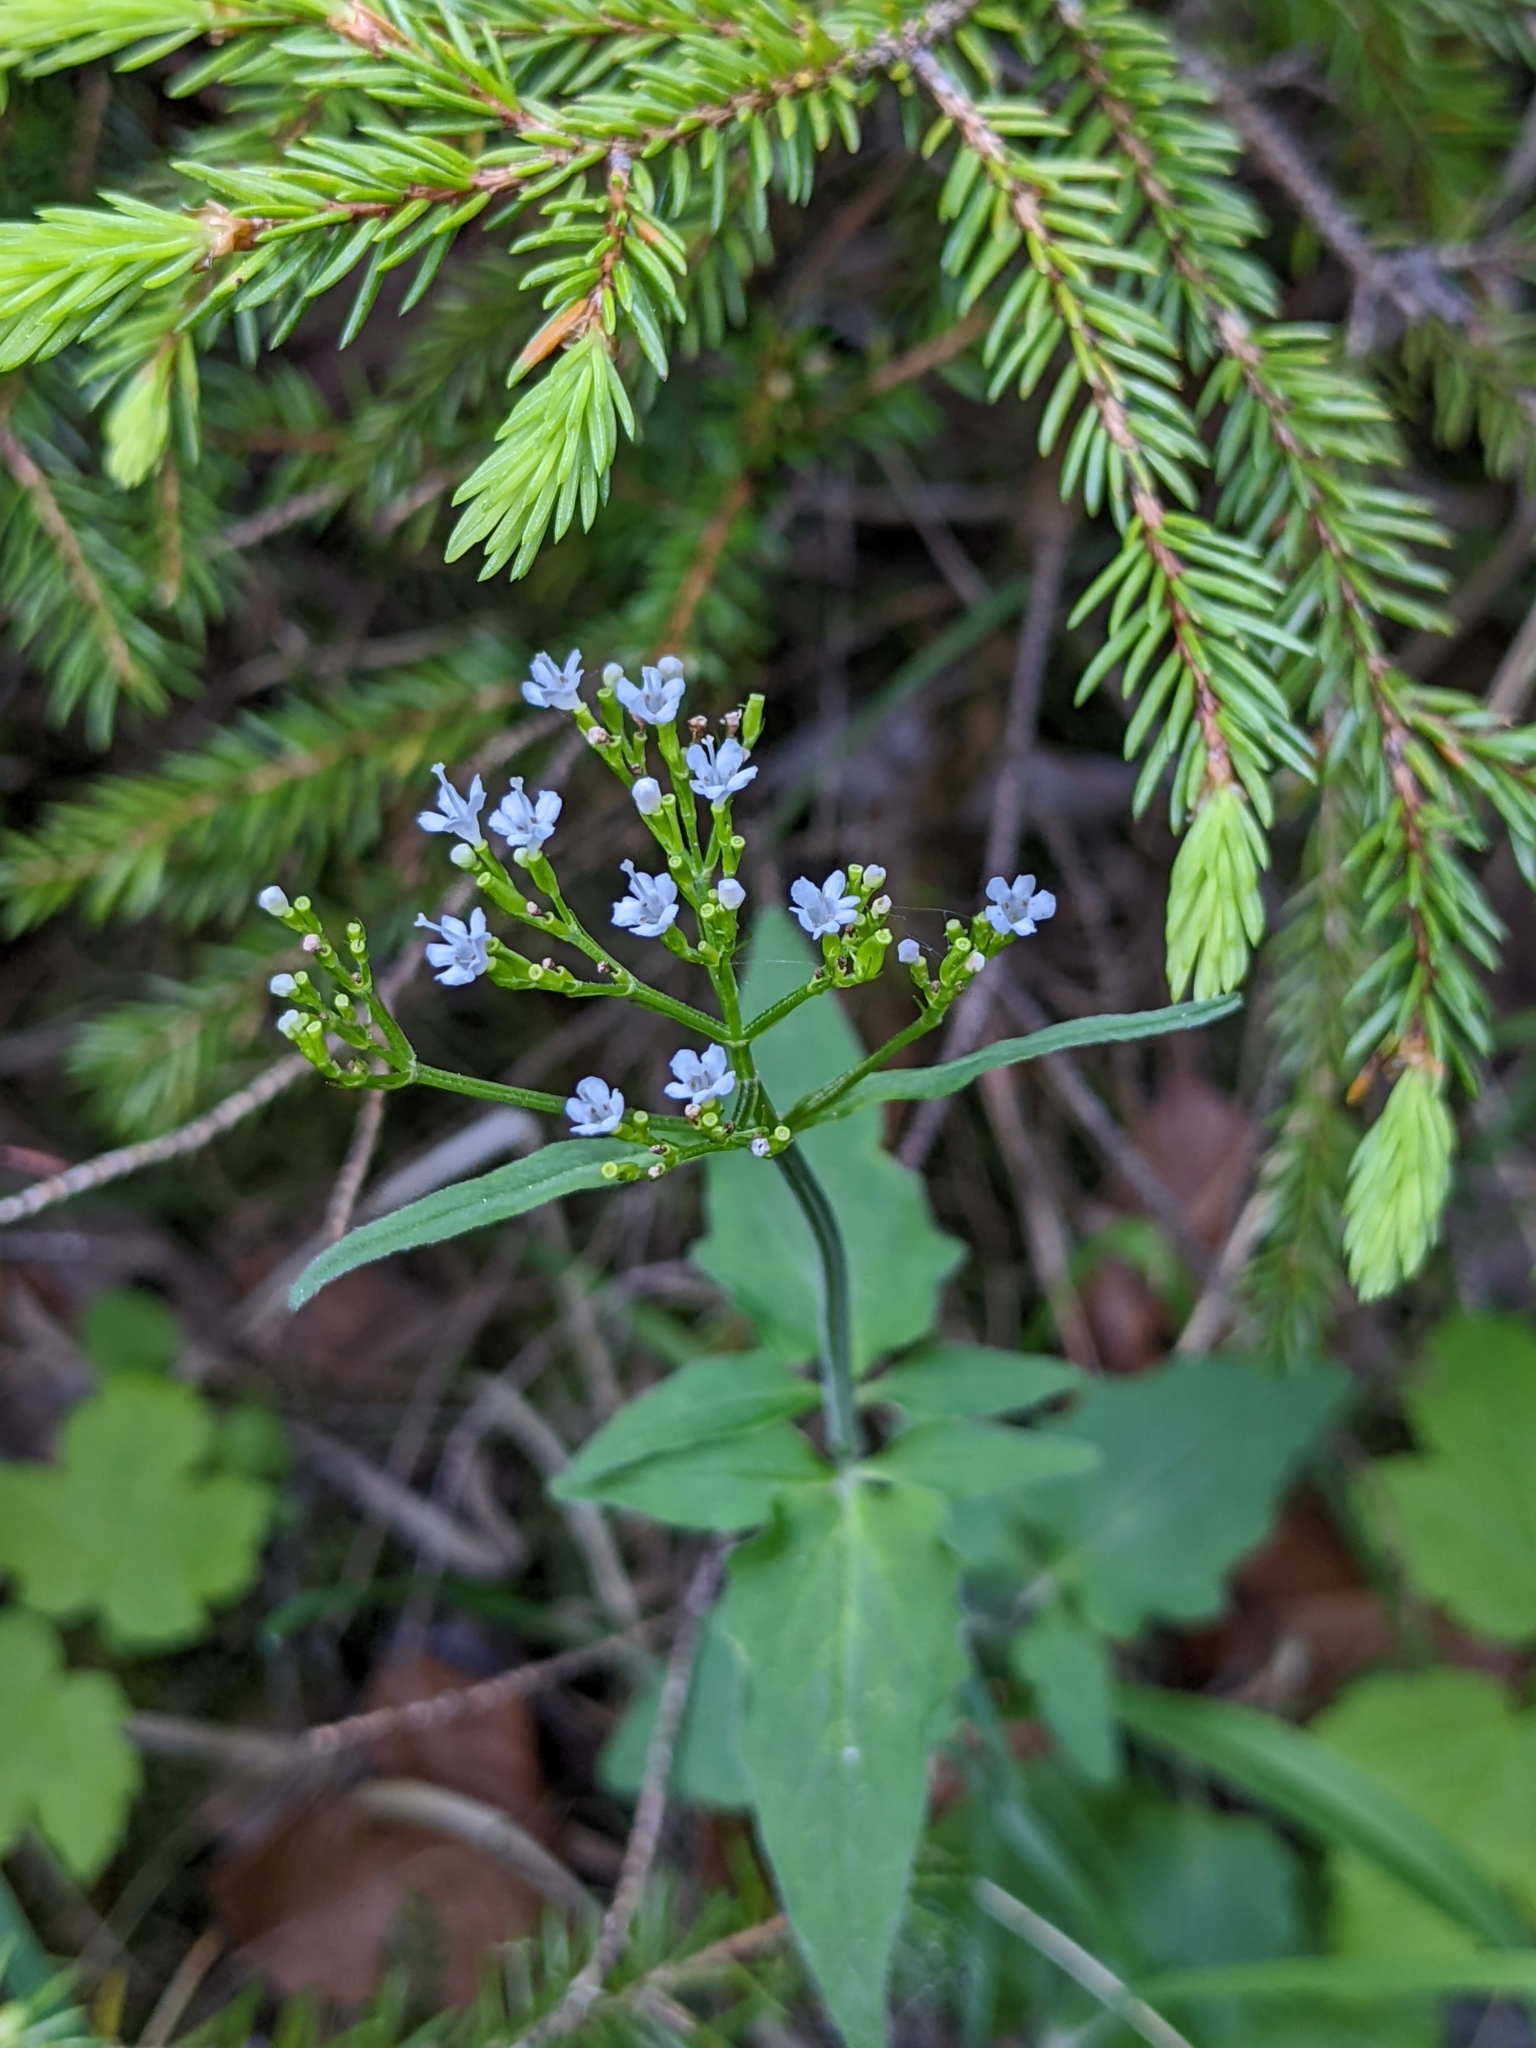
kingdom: Plantae
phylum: Tracheophyta
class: Magnoliopsida
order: Dipsacales
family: Caprifoliaceae
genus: Valeriana
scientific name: Valeriana tripteris
